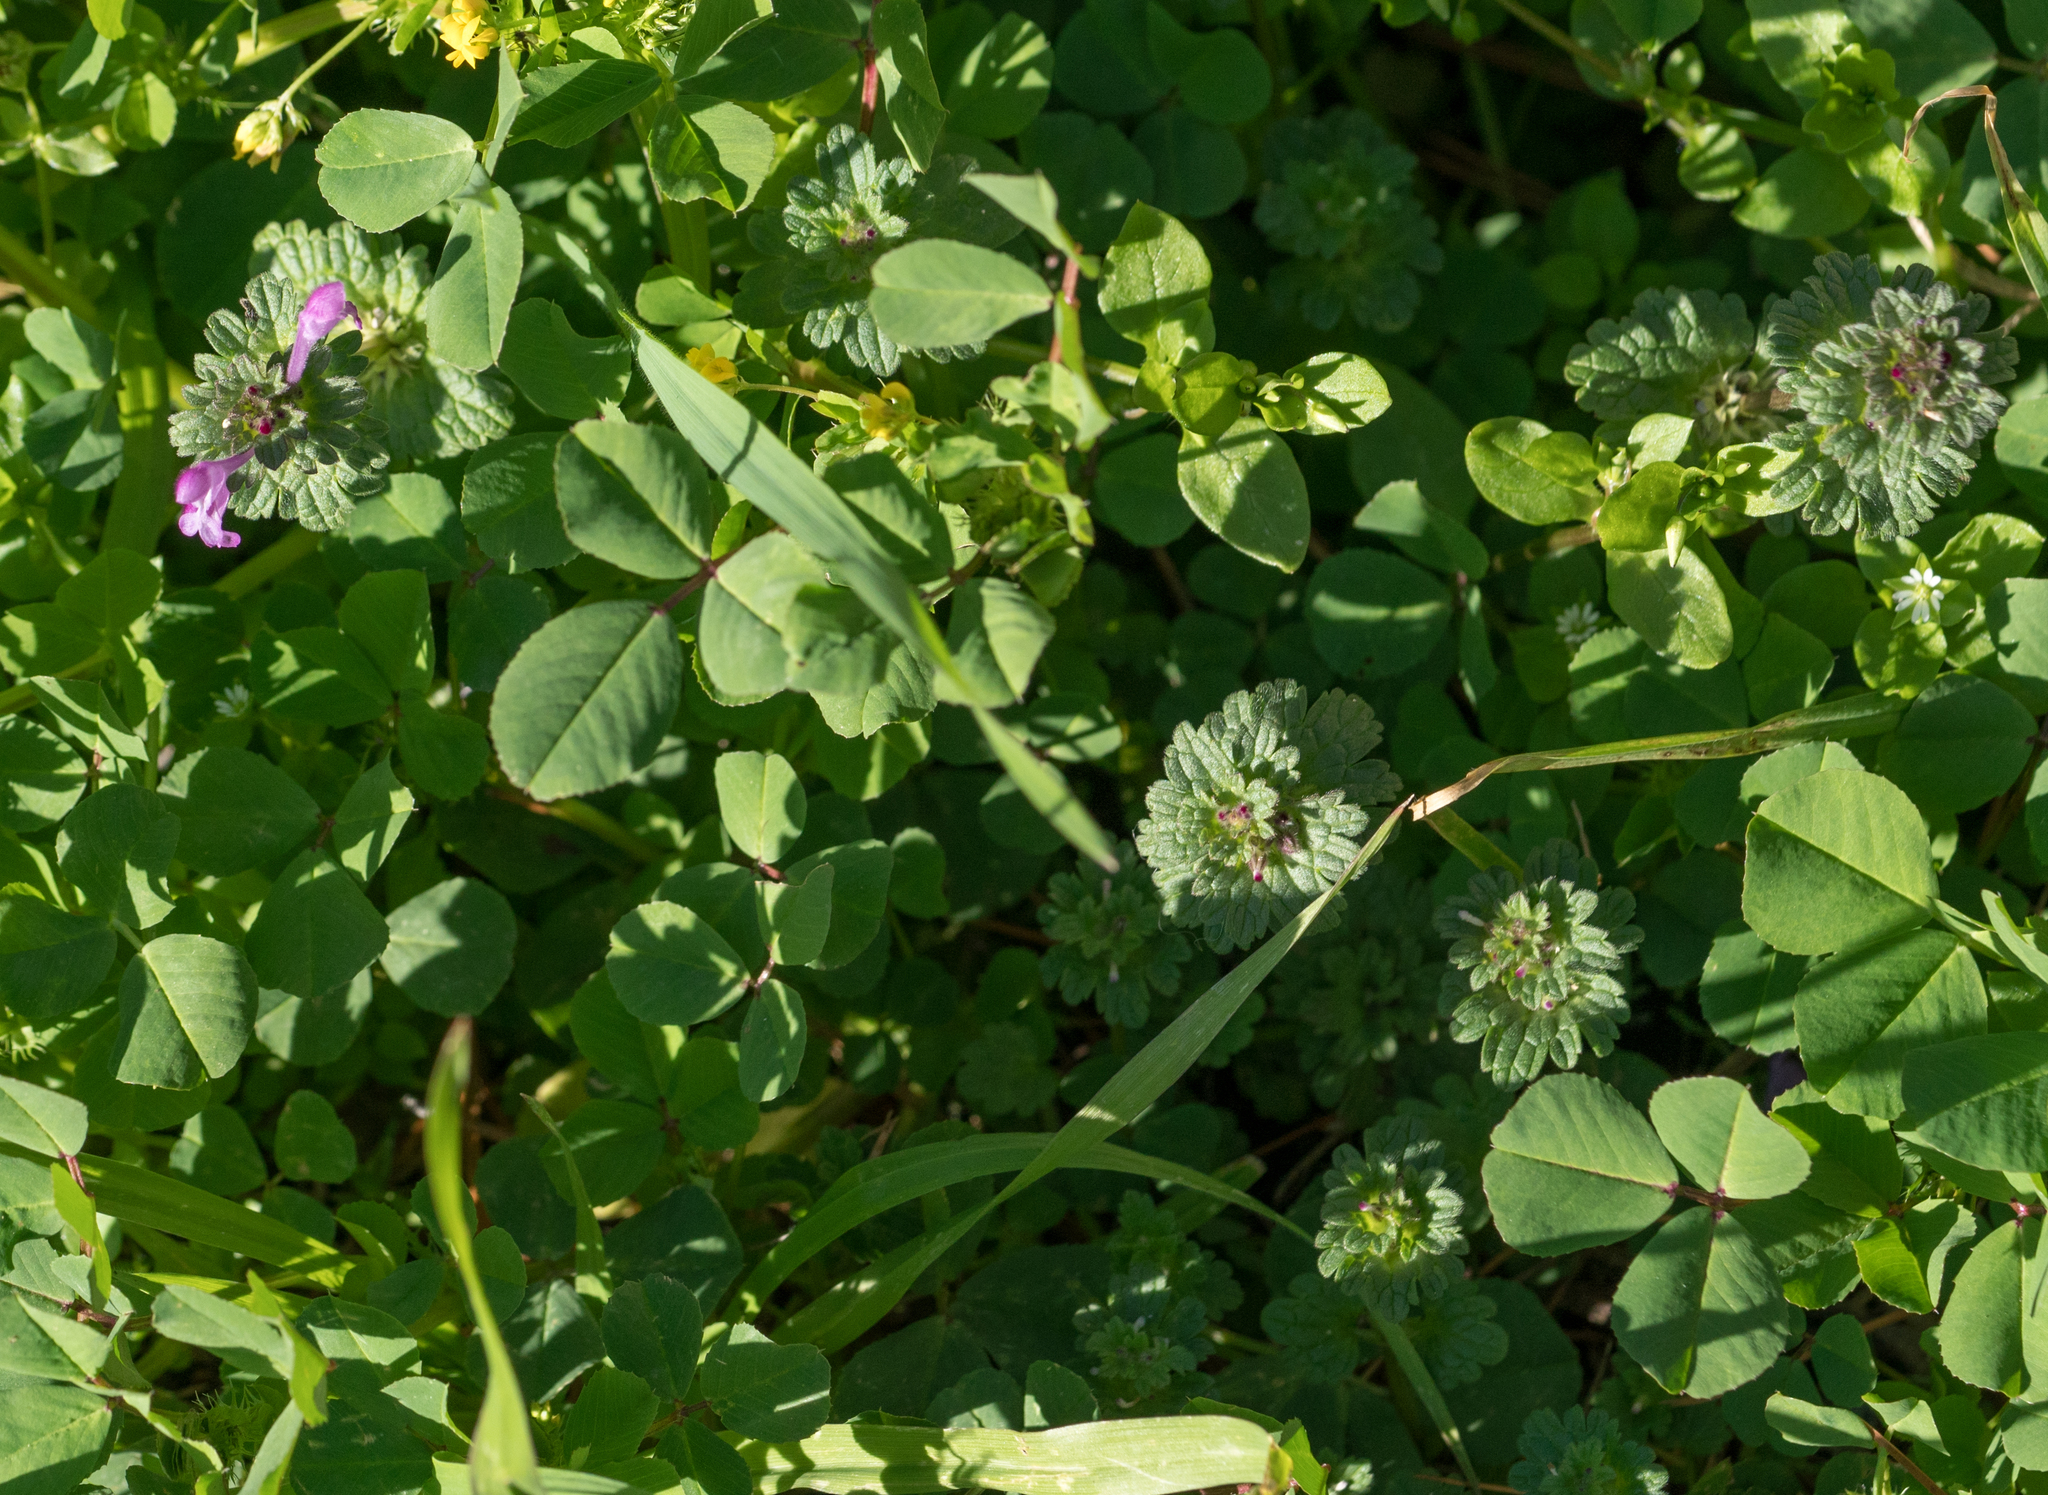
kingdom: Plantae
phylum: Tracheophyta
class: Magnoliopsida
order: Lamiales
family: Lamiaceae
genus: Lamium
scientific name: Lamium amplexicaule
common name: Henbit dead-nettle
